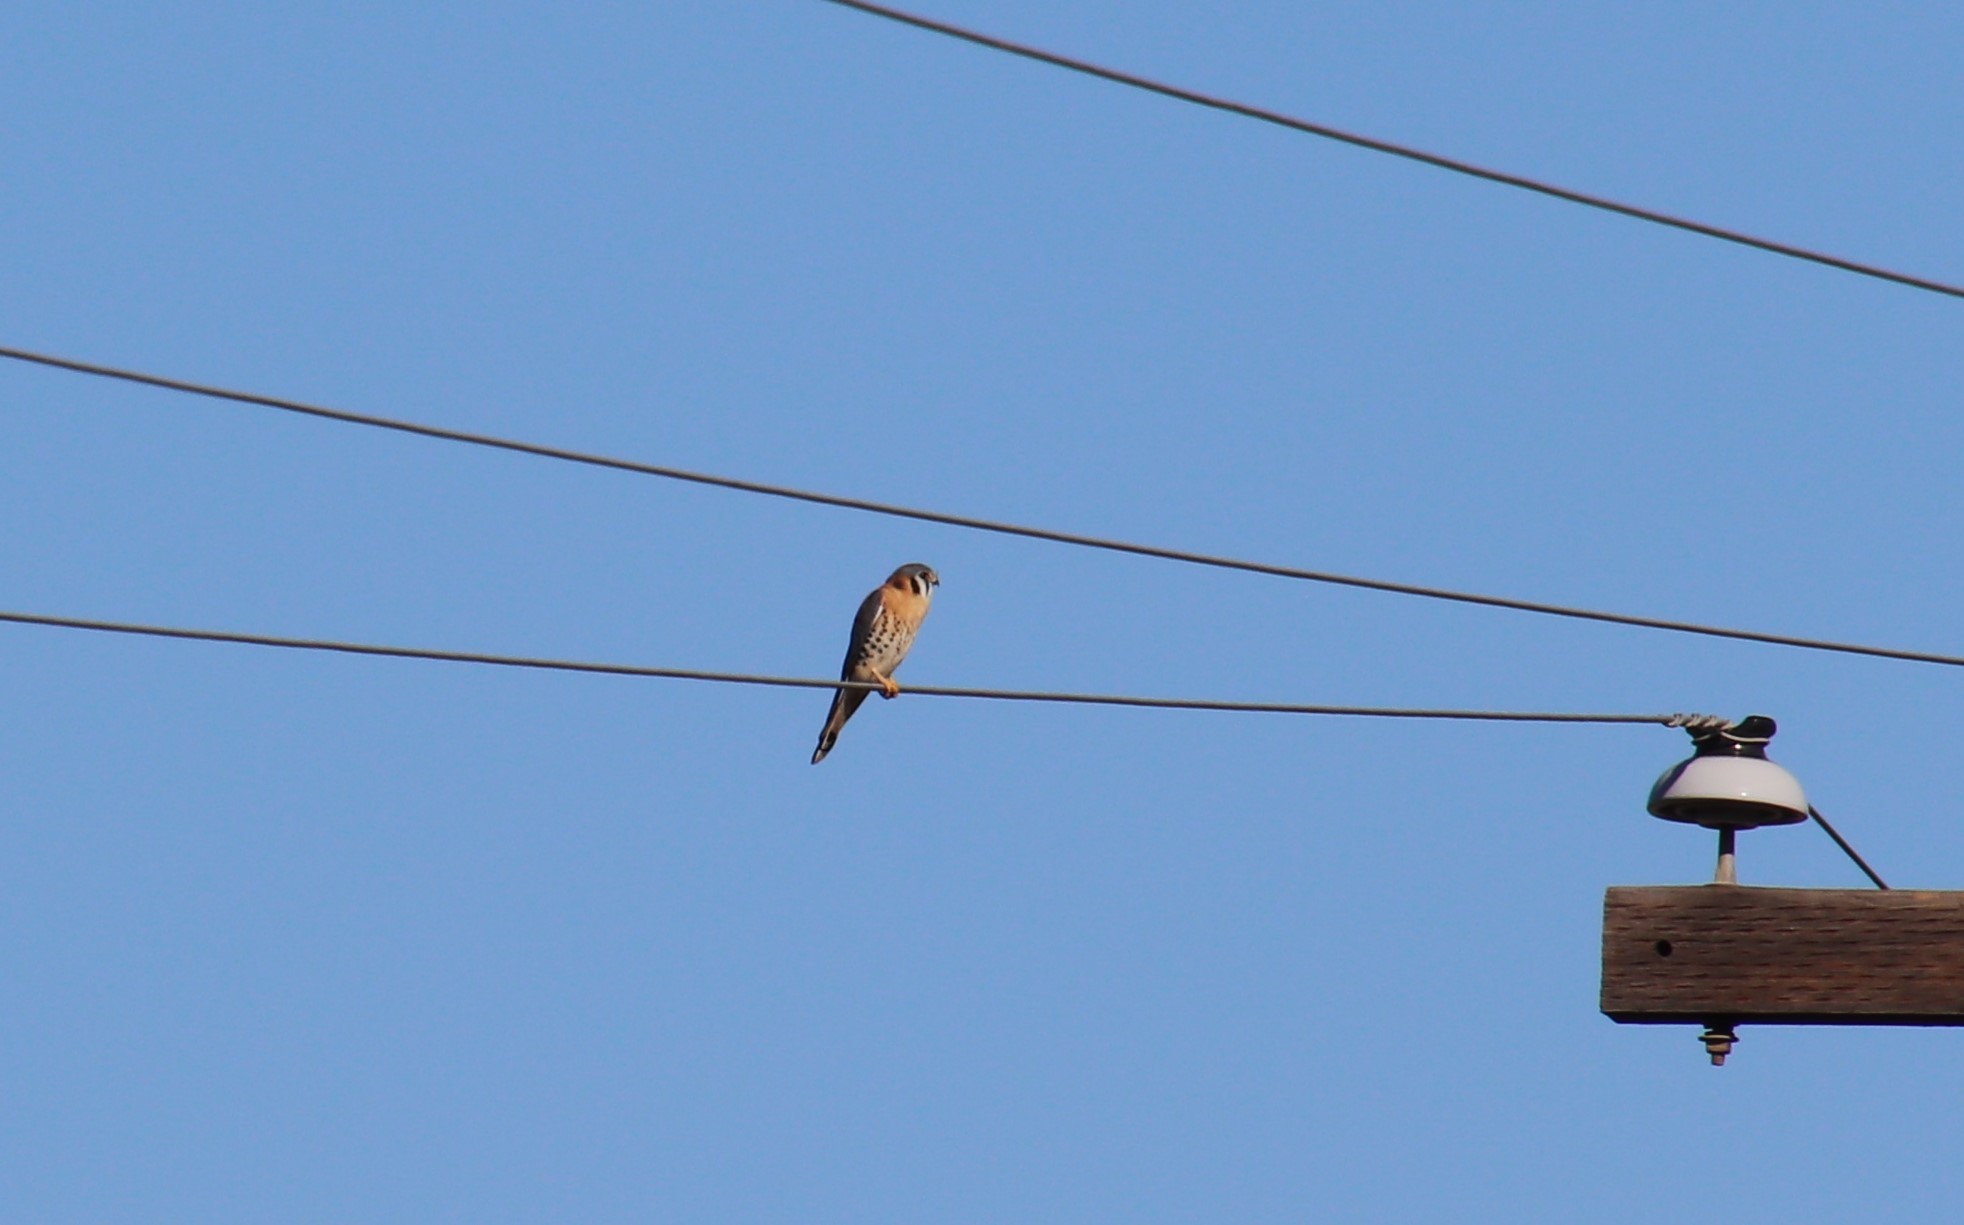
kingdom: Animalia
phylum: Chordata
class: Aves
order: Falconiformes
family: Falconidae
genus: Falco
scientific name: Falco sparverius
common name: American kestrel
